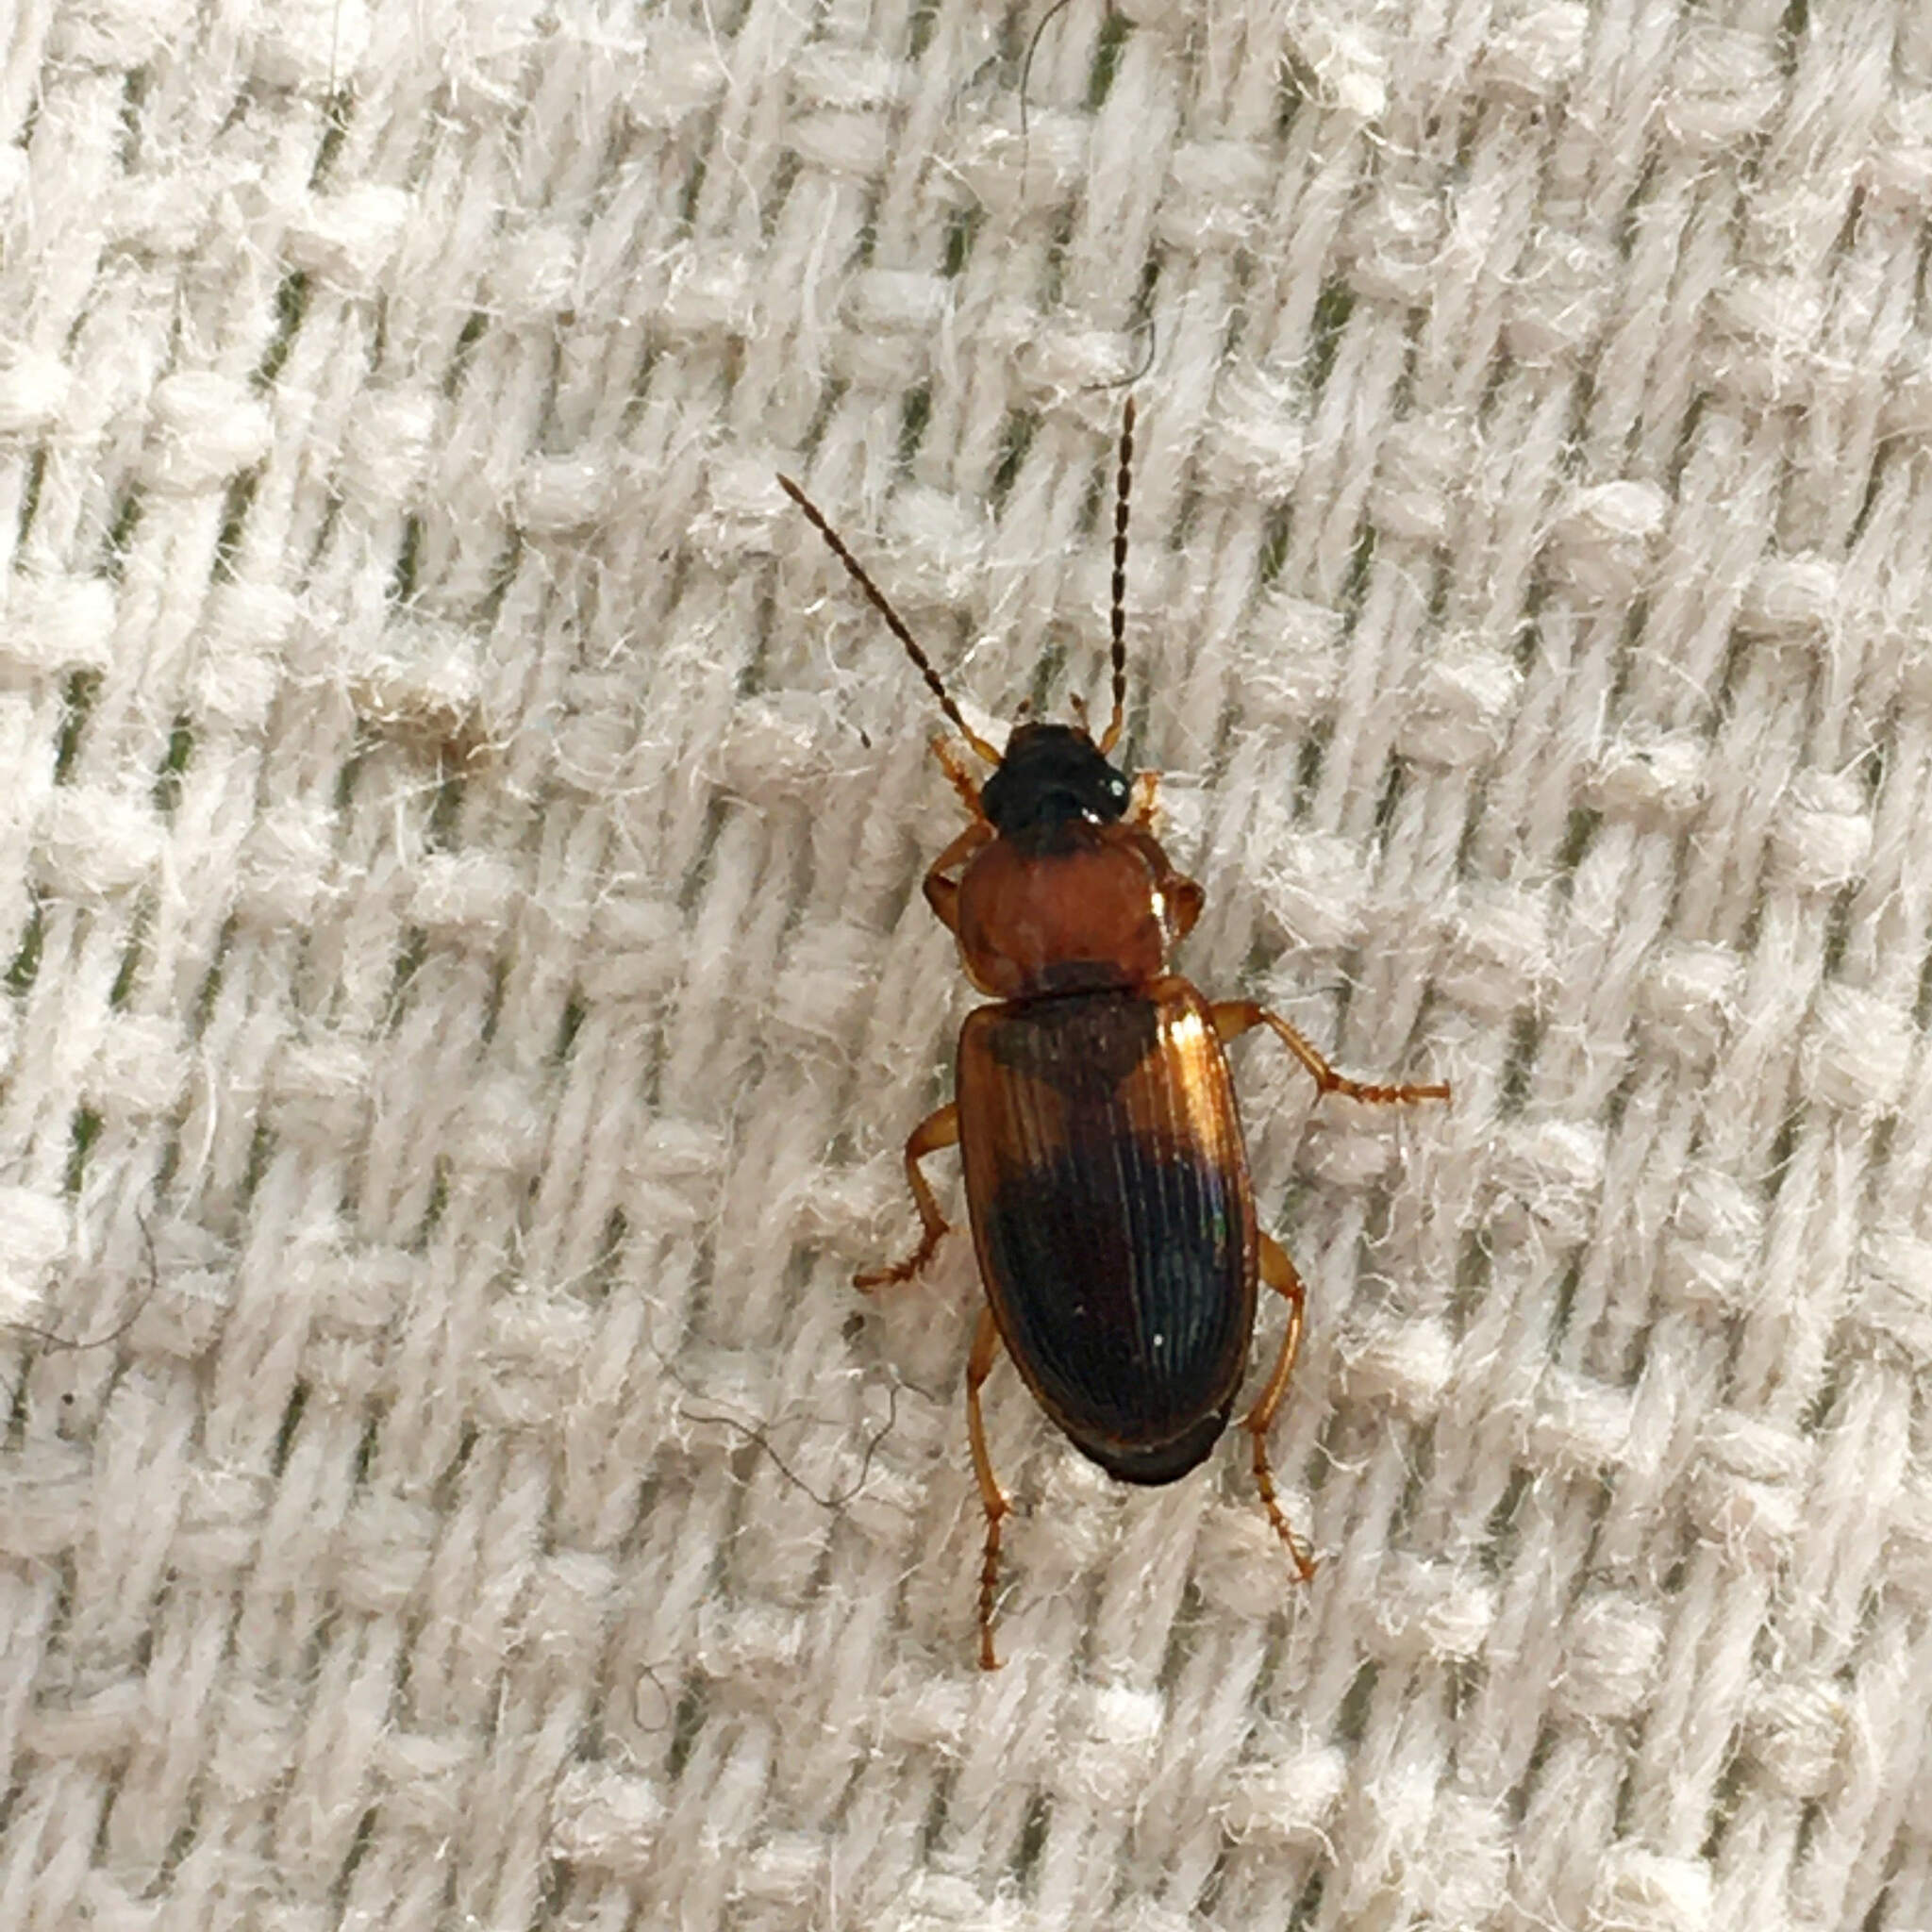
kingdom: Animalia
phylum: Arthropoda
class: Insecta
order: Coleoptera
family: Carabidae
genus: Stenolophus
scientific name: Stenolophus teutonus
